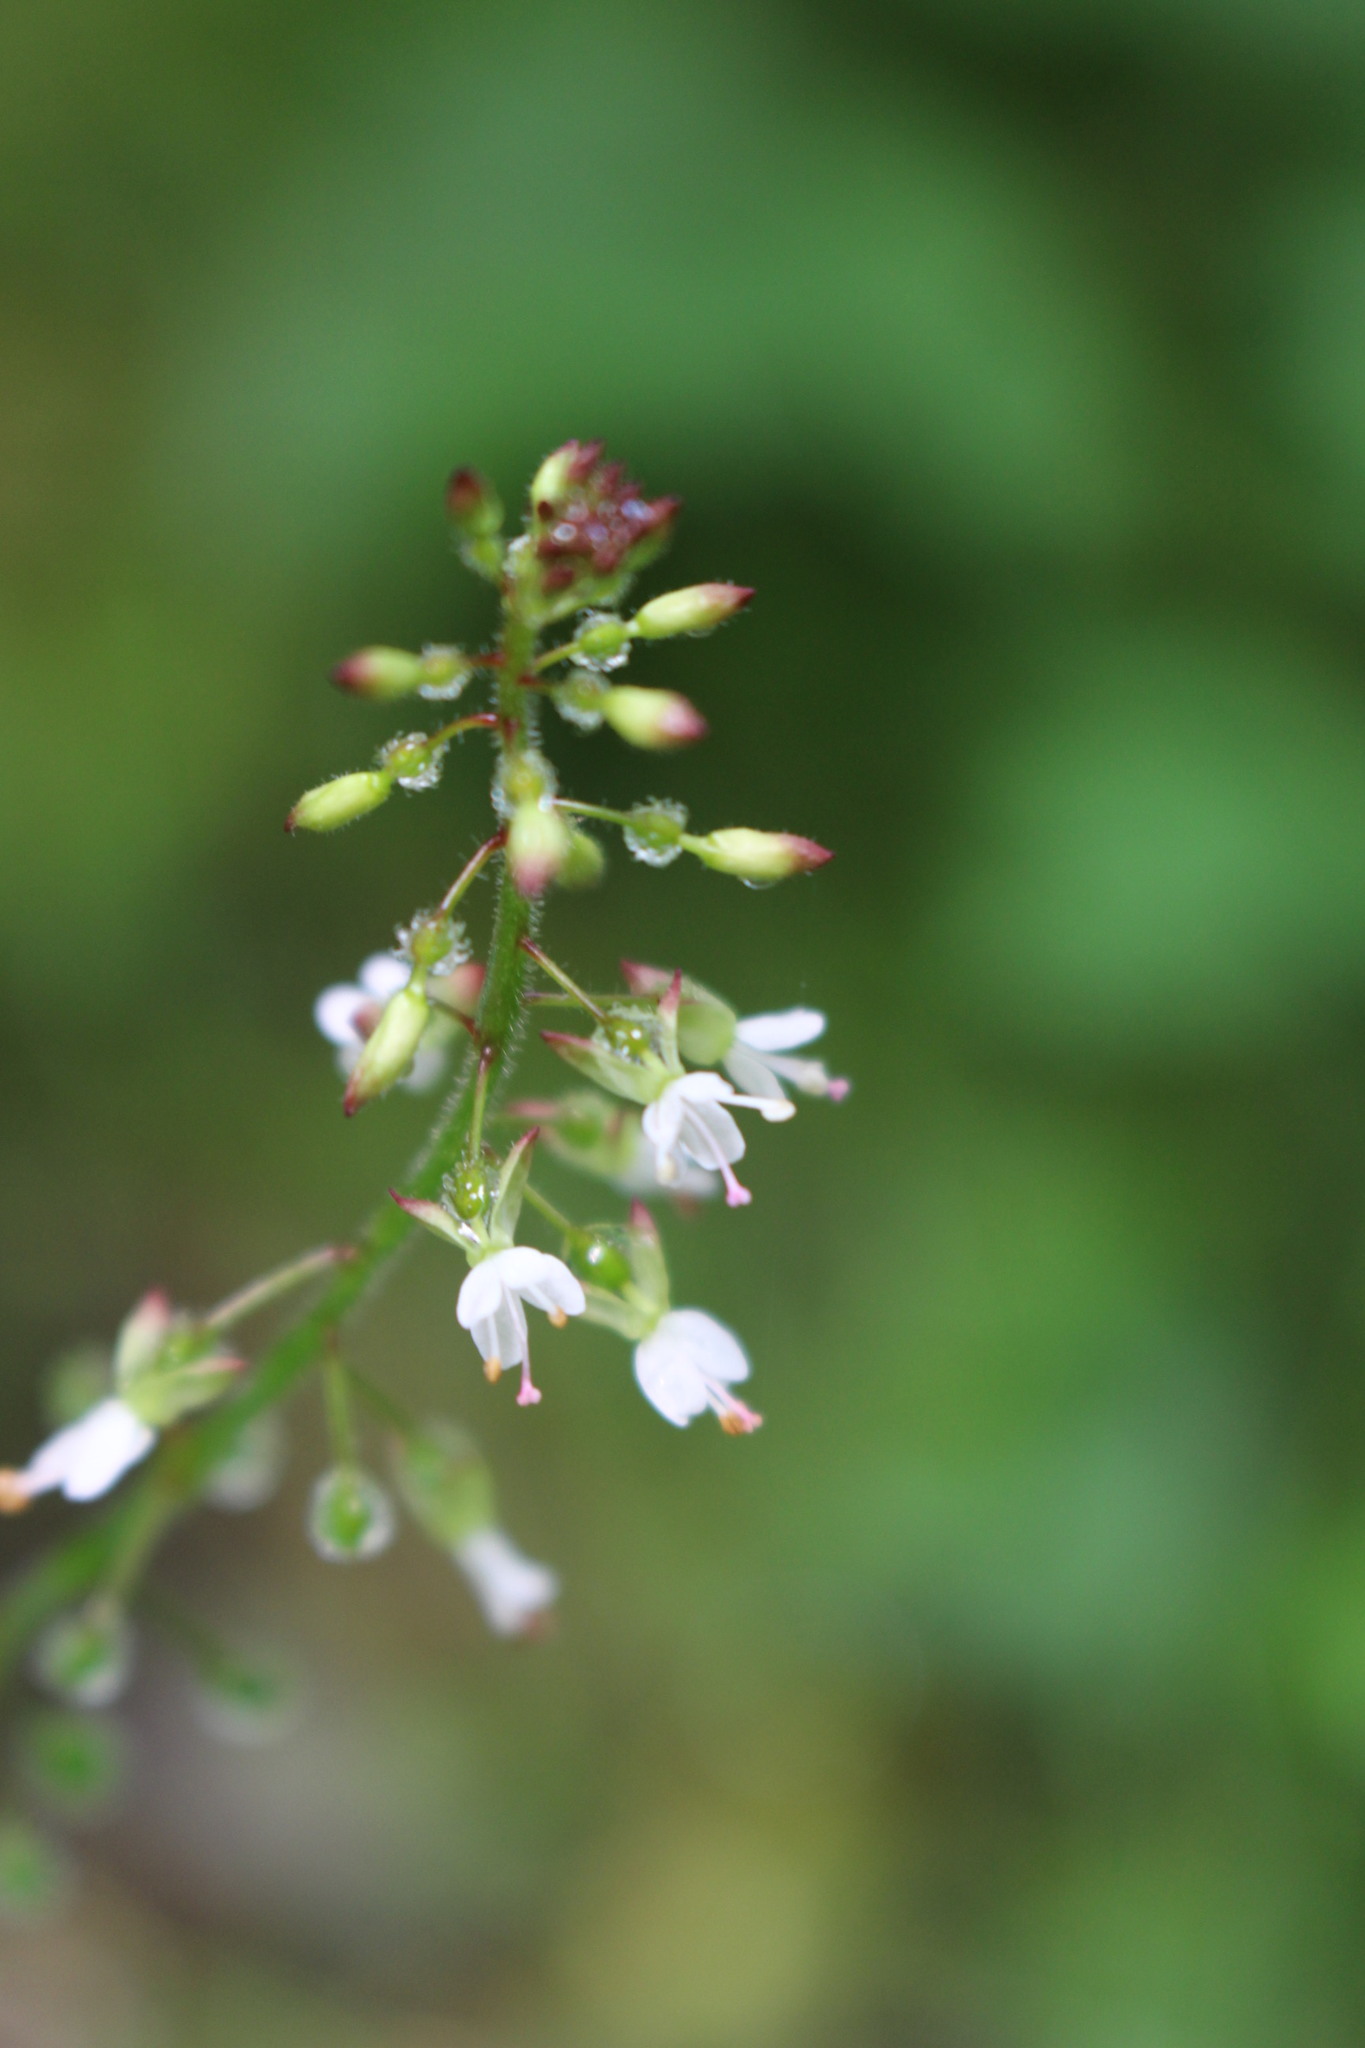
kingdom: Plantae
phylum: Tracheophyta
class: Magnoliopsida
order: Myrtales
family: Onagraceae
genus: Circaea
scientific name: Circaea lutetiana
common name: Enchanter's-nightshade
